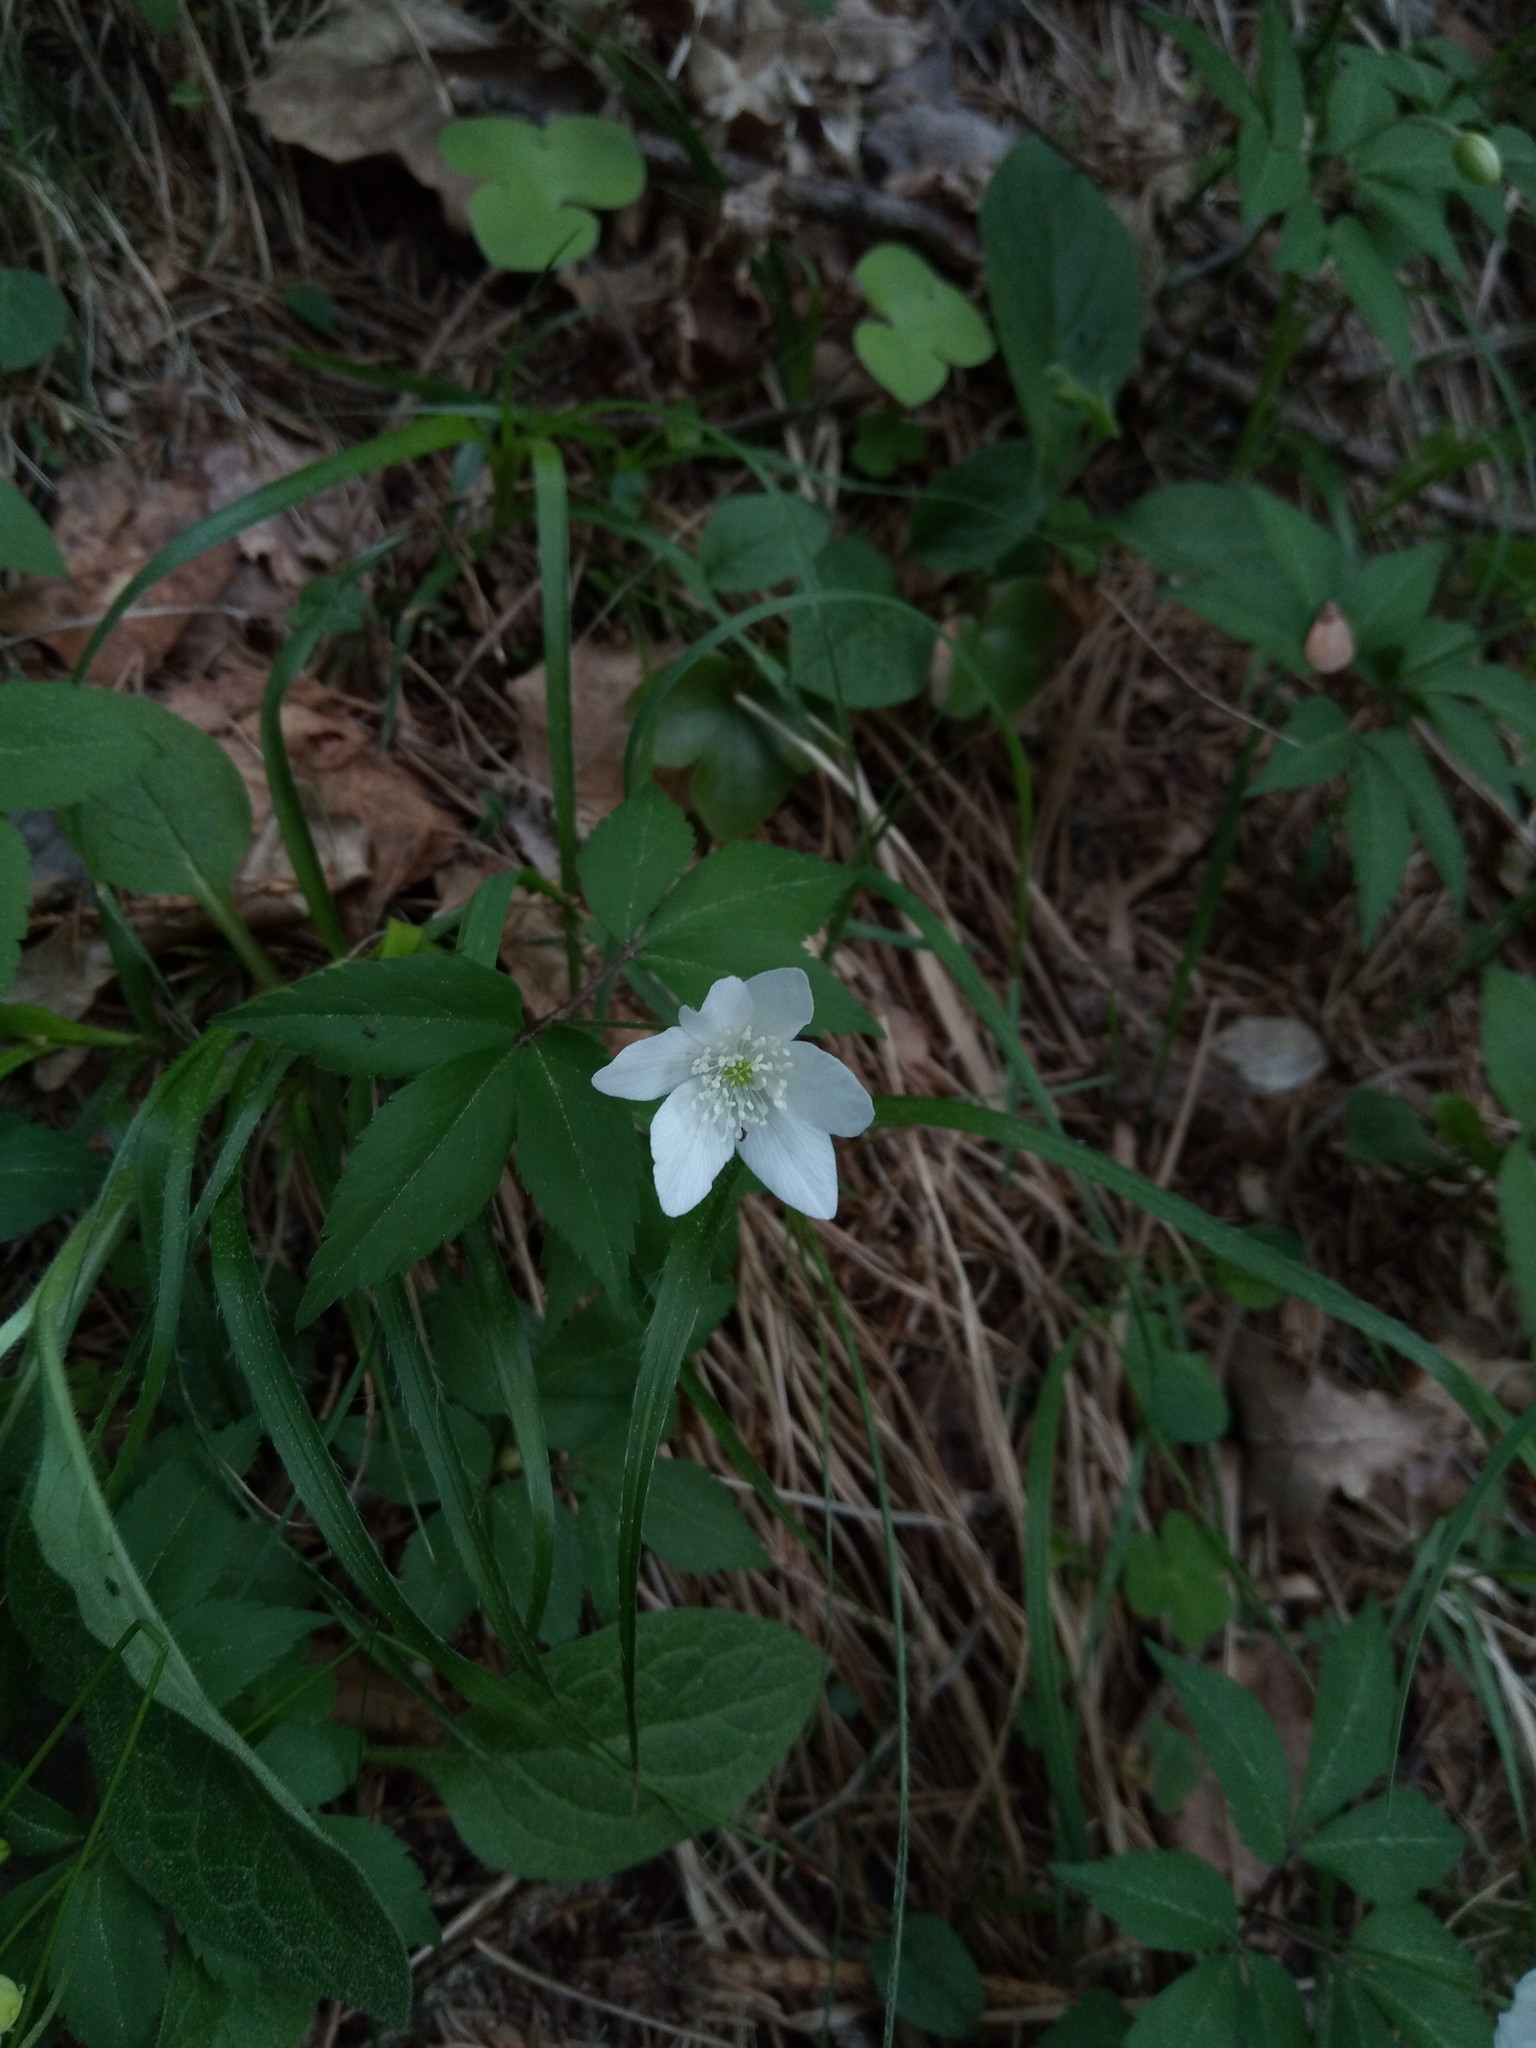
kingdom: Plantae
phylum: Tracheophyta
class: Magnoliopsida
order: Ranunculales
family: Ranunculaceae
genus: Anemone
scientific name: Anemone trifolia
